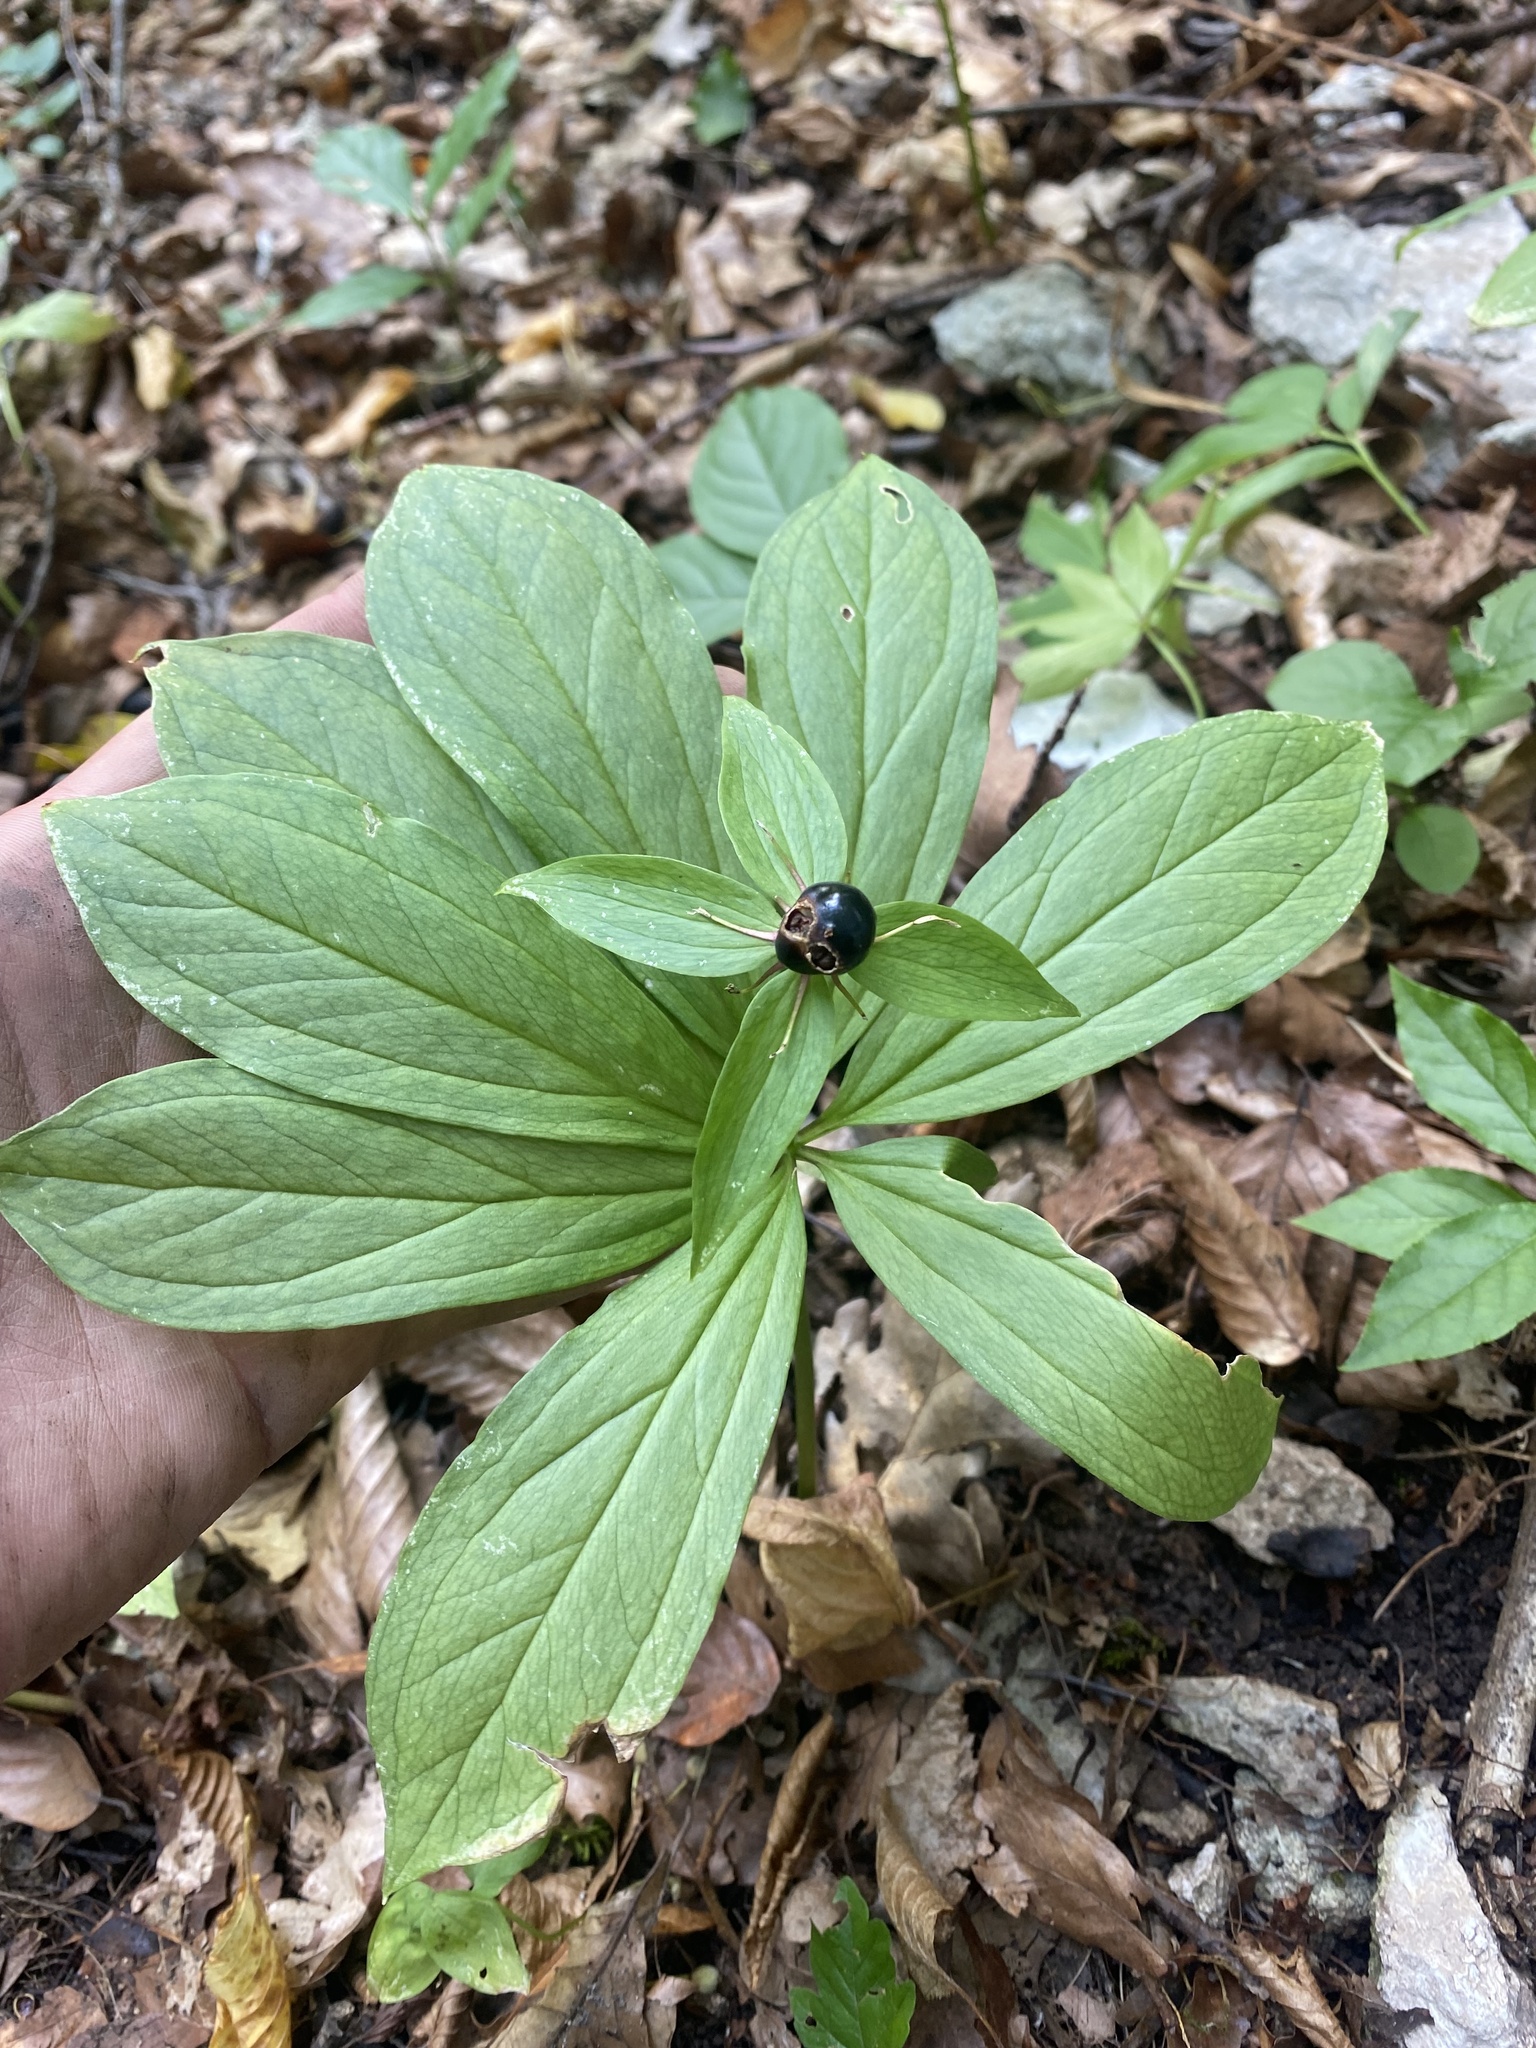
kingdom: Plantae
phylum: Tracheophyta
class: Liliopsida
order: Liliales
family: Melanthiaceae
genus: Paris
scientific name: Paris incompleta
